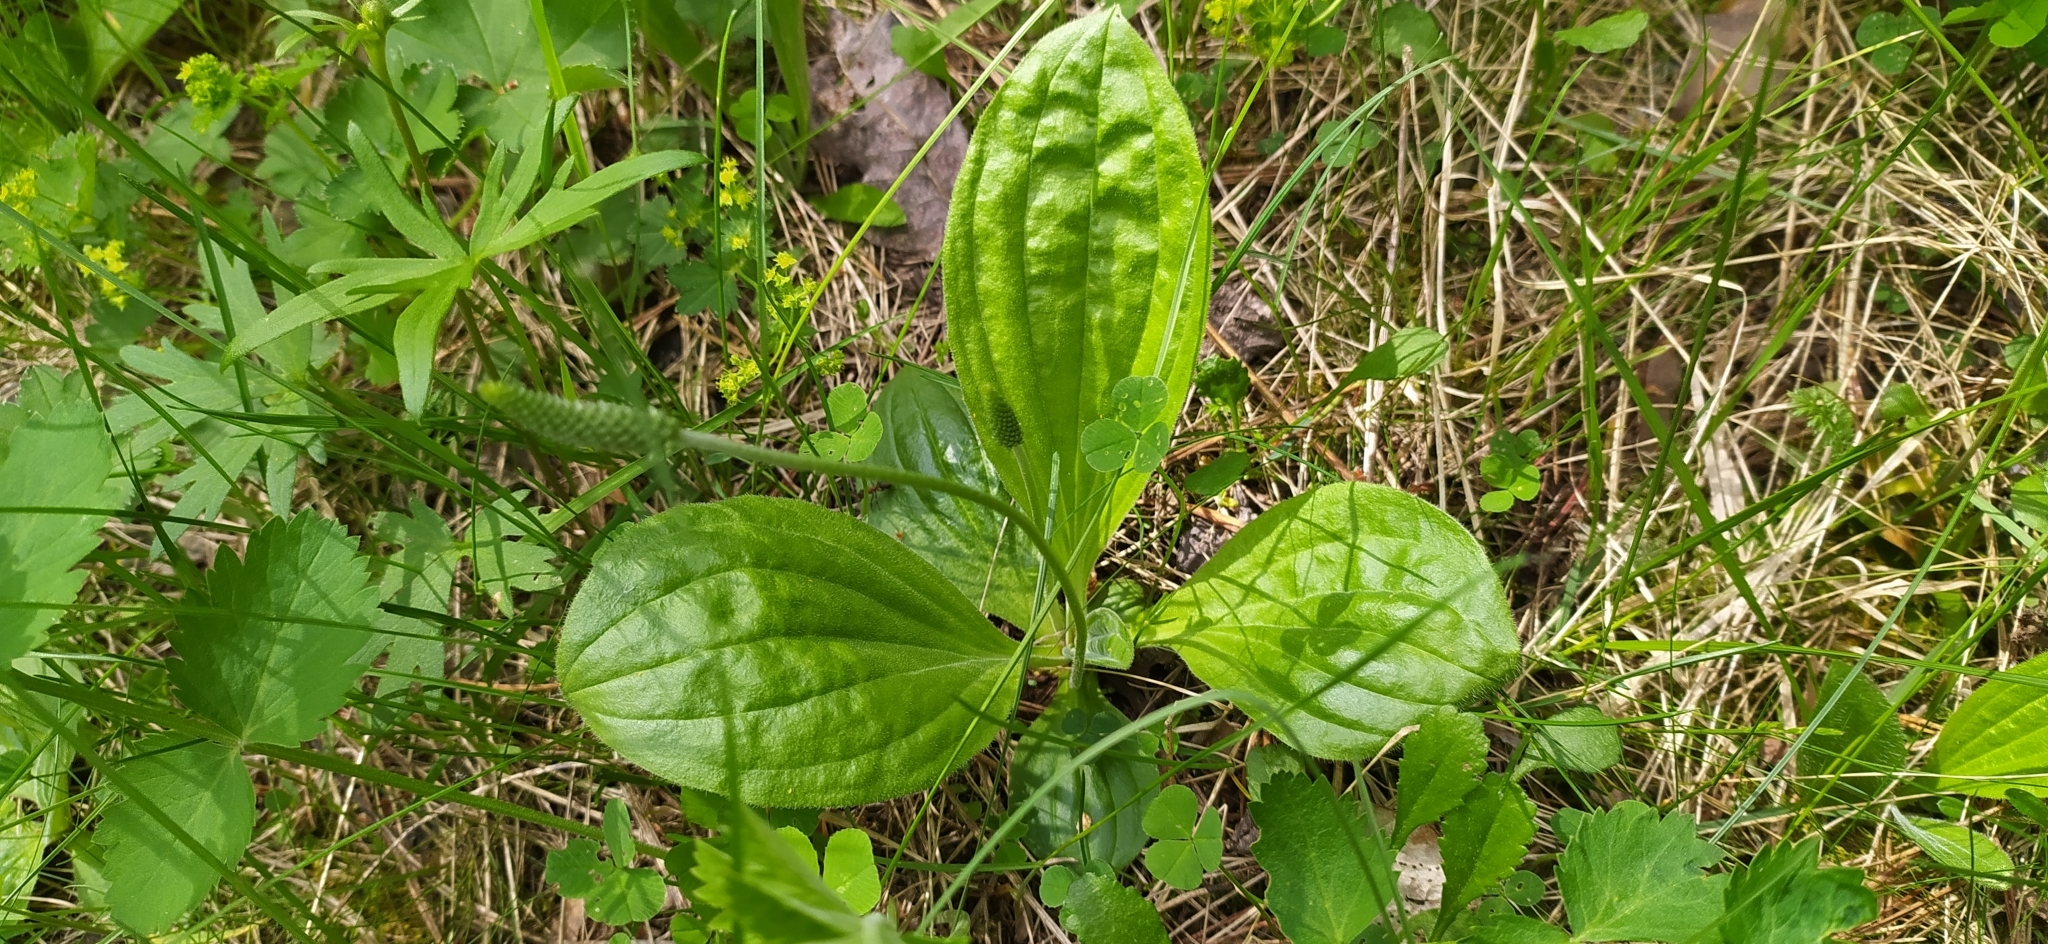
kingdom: Plantae
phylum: Tracheophyta
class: Magnoliopsida
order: Lamiales
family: Plantaginaceae
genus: Plantago
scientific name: Plantago media
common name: Hoary plantain
